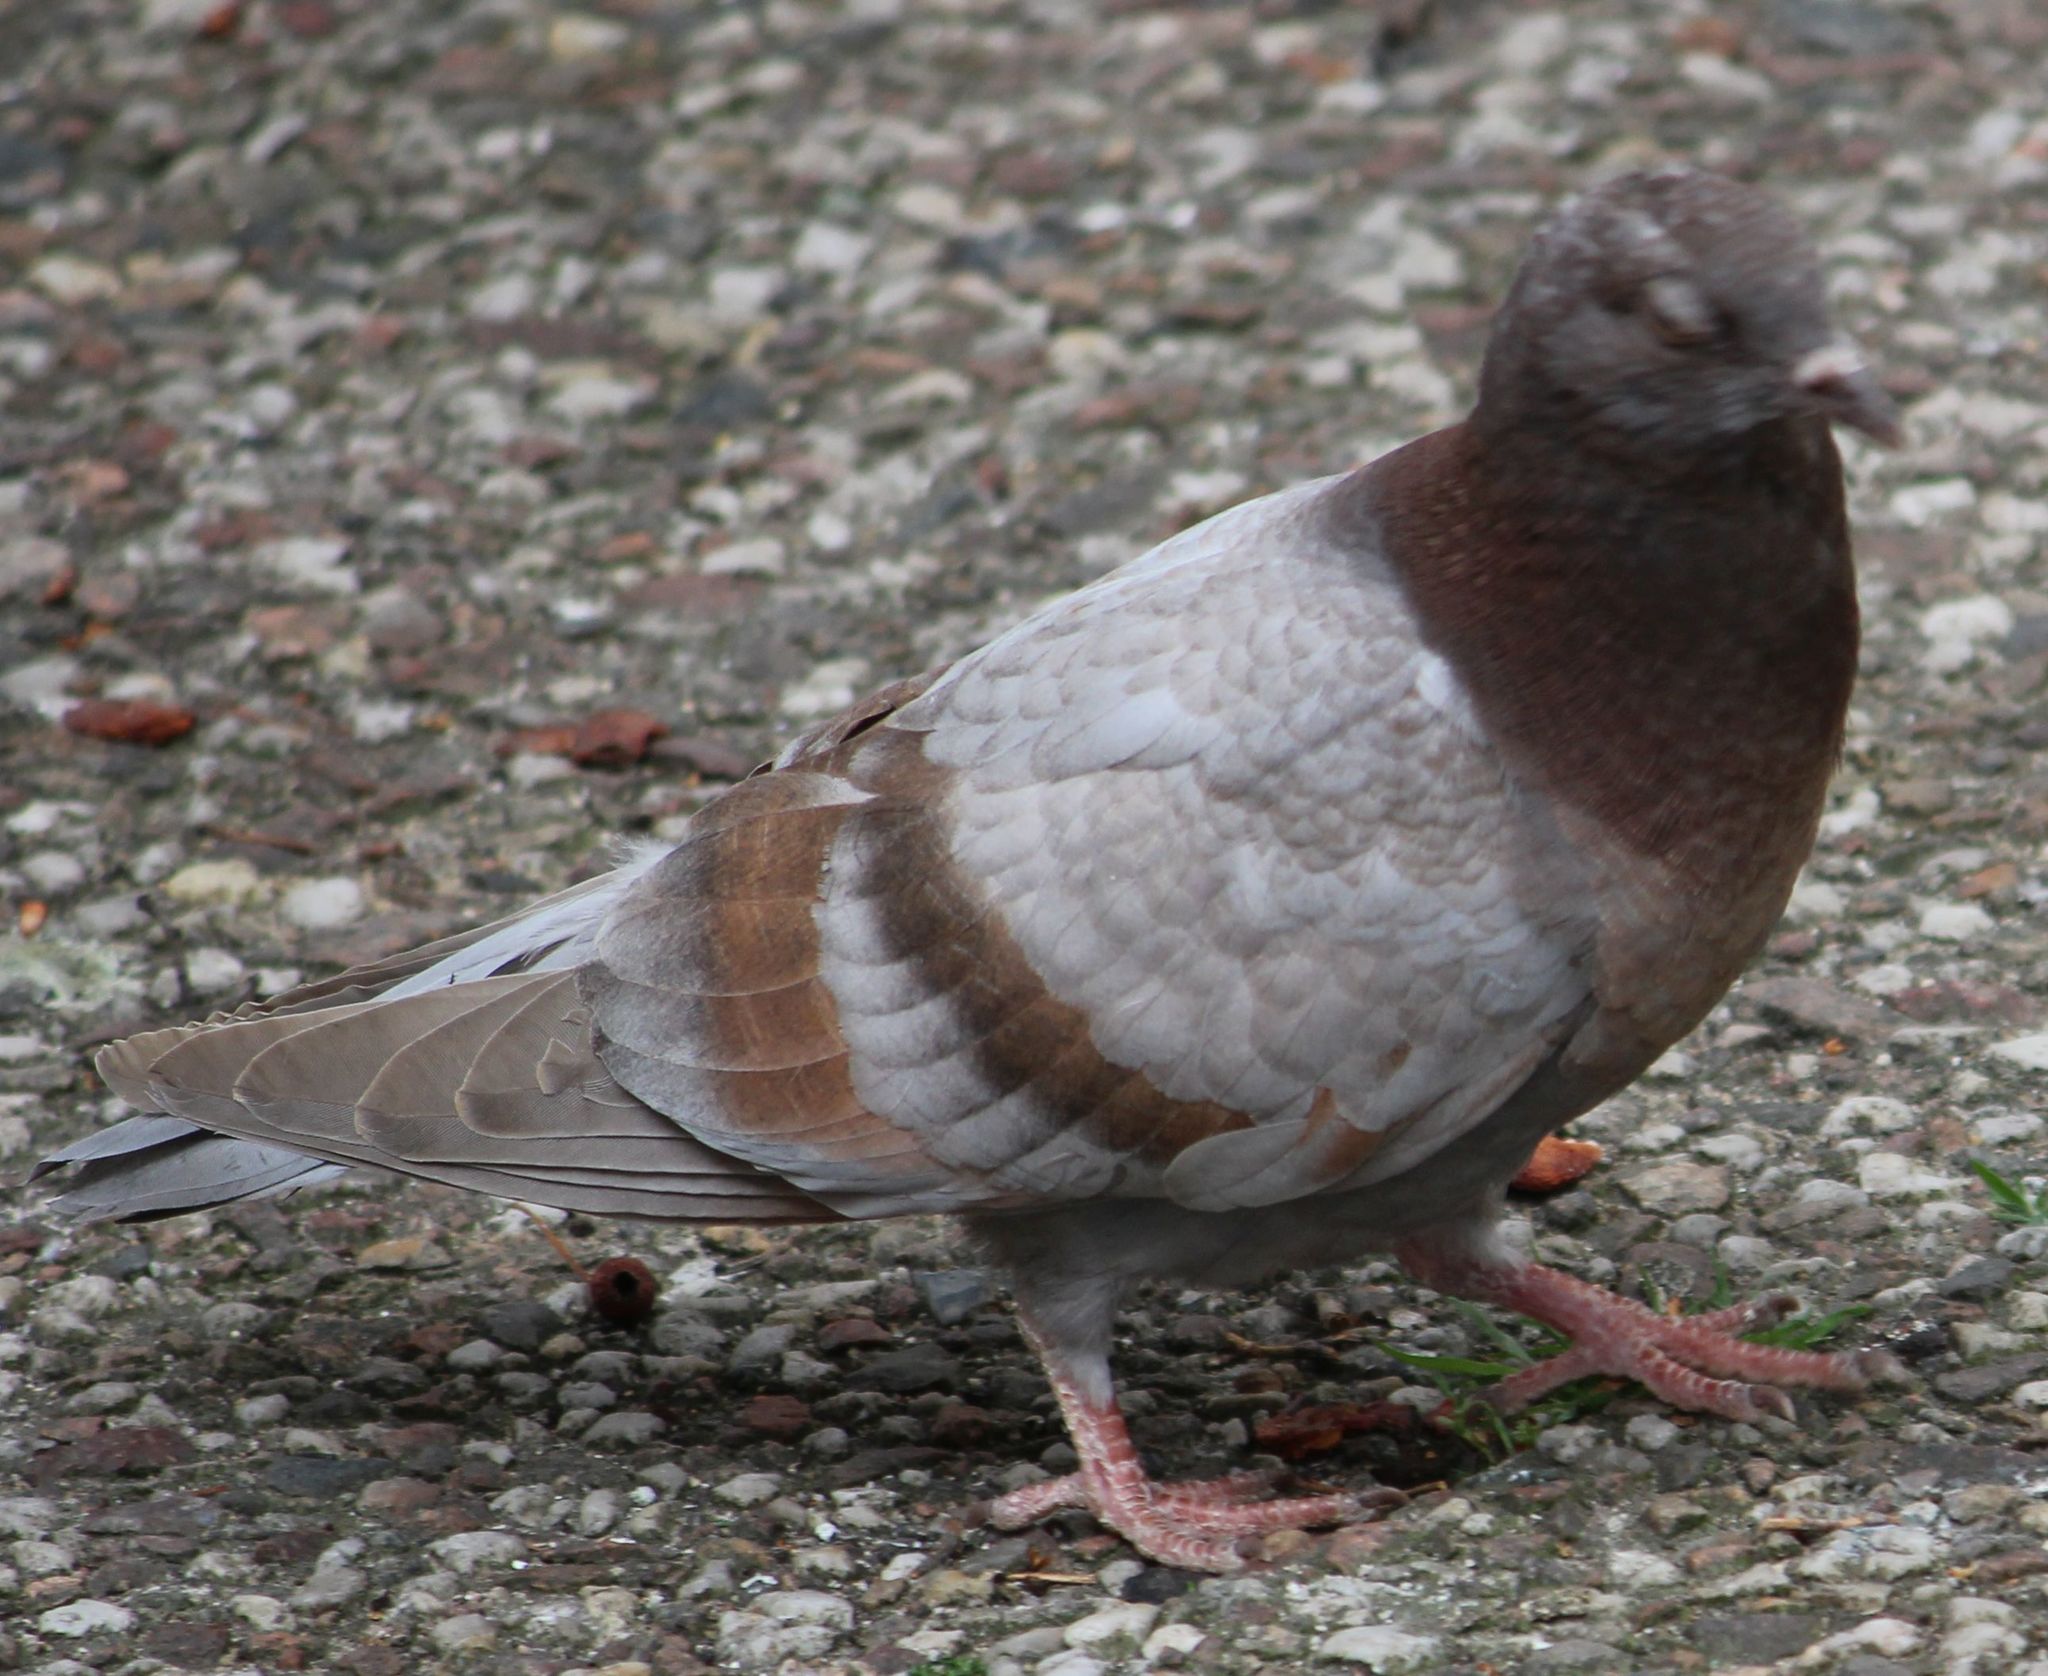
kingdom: Animalia
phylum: Chordata
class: Aves
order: Columbiformes
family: Columbidae
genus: Columba
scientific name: Columba livia
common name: Rock pigeon
